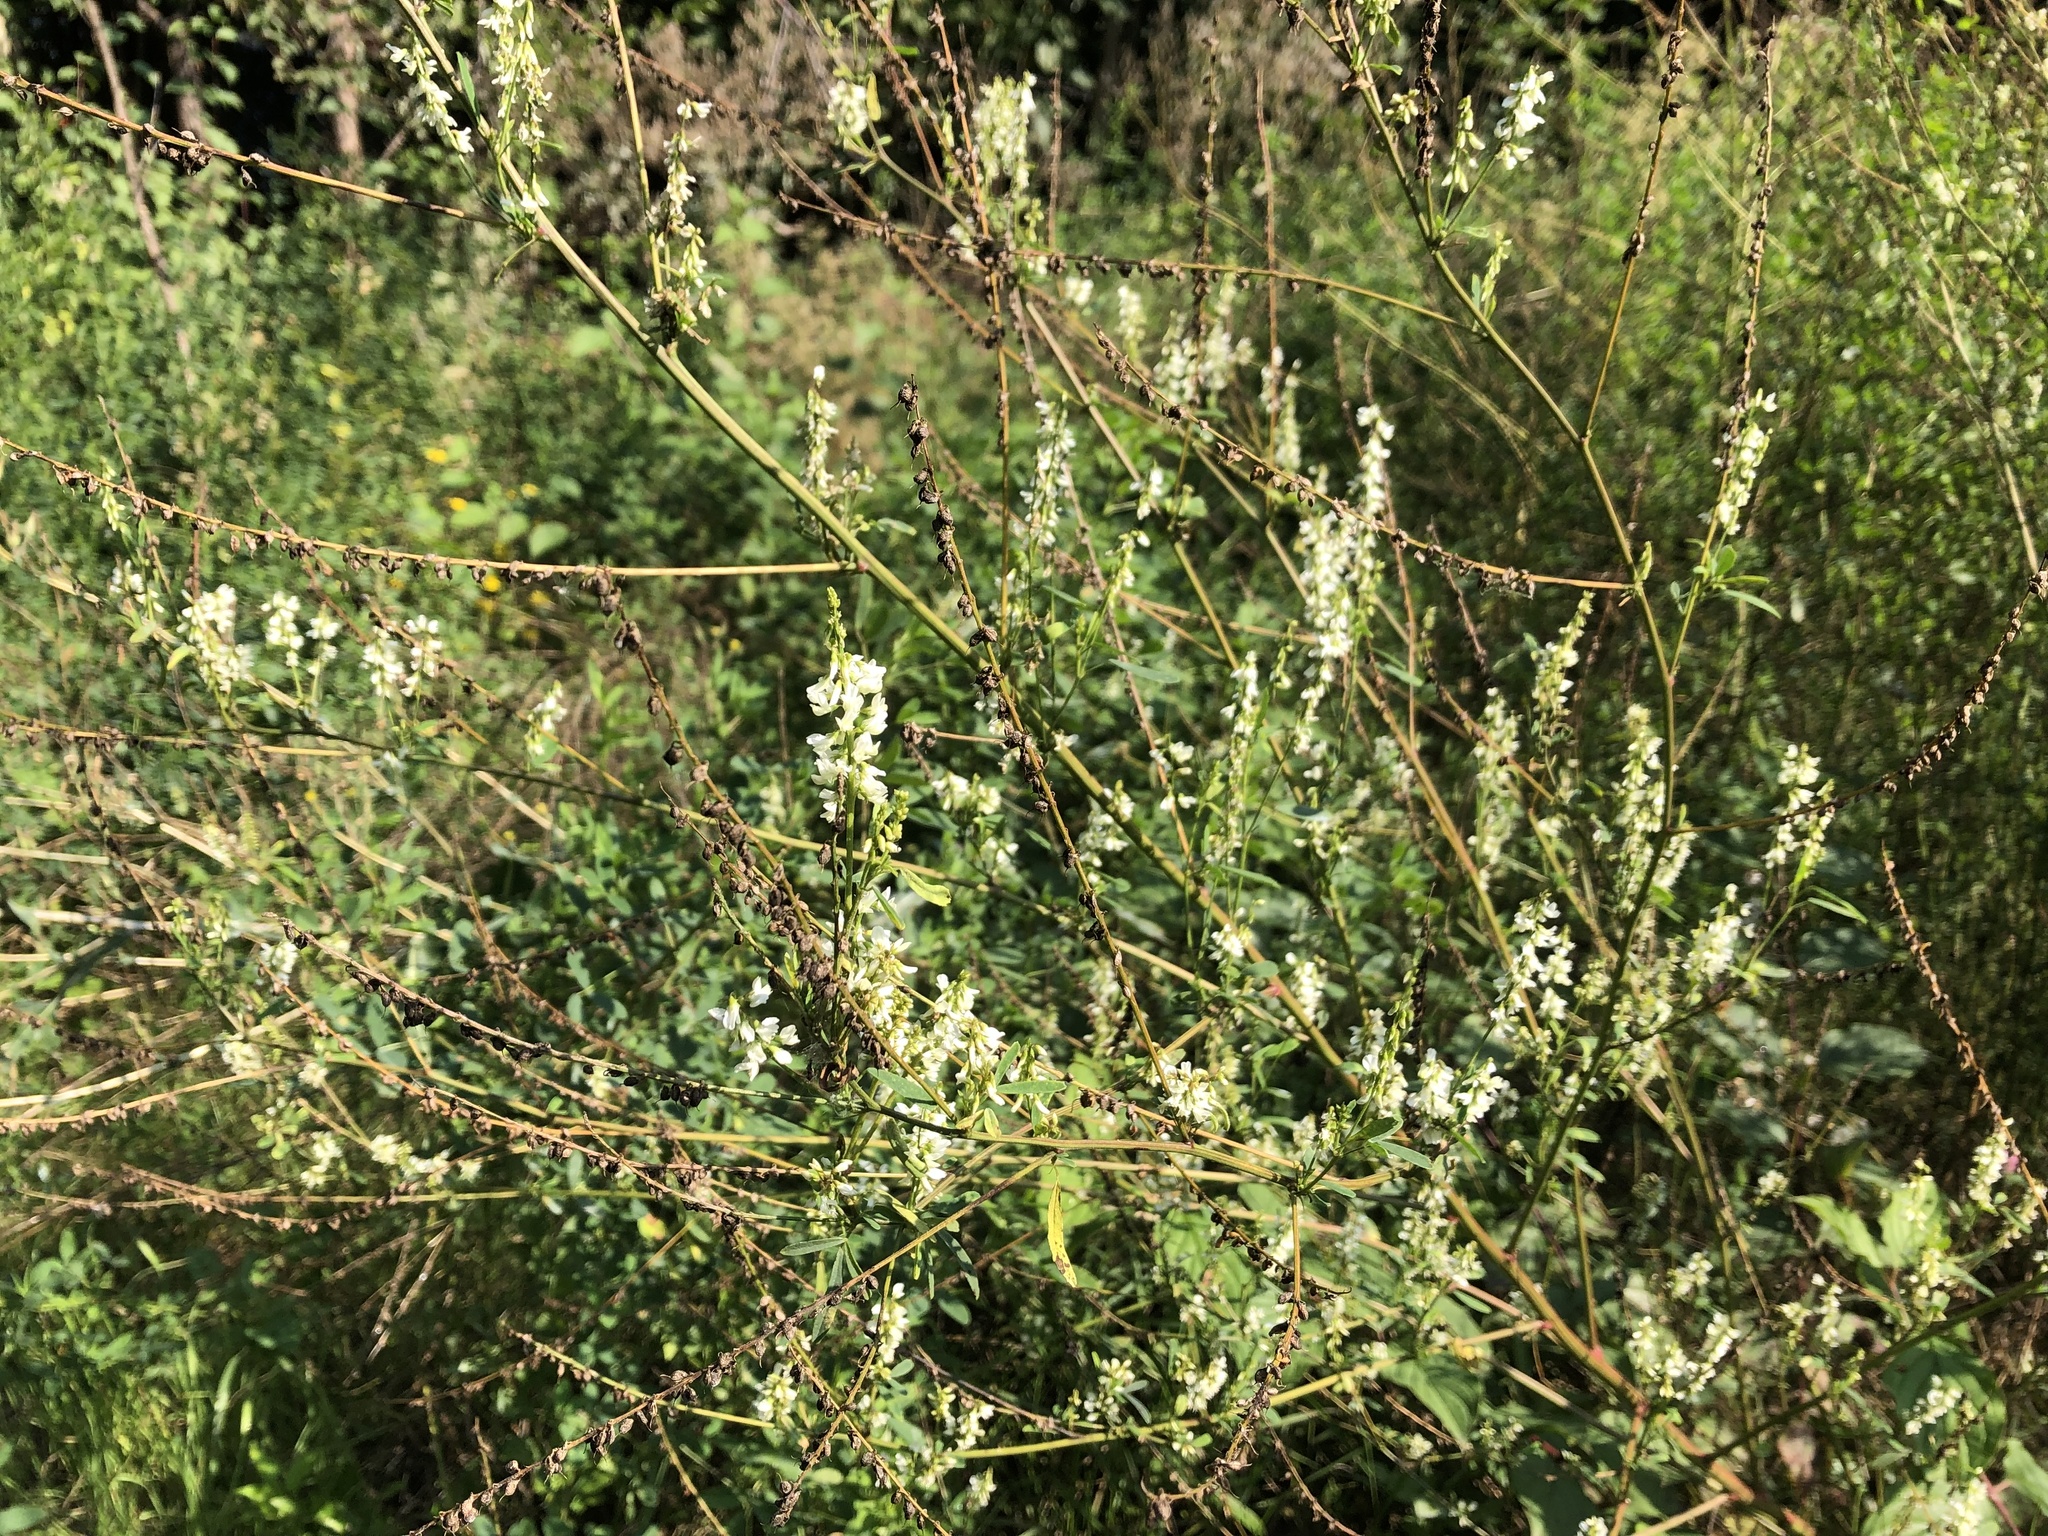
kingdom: Plantae
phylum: Tracheophyta
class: Magnoliopsida
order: Fabales
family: Fabaceae
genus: Melilotus
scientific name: Melilotus albus
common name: White melilot
